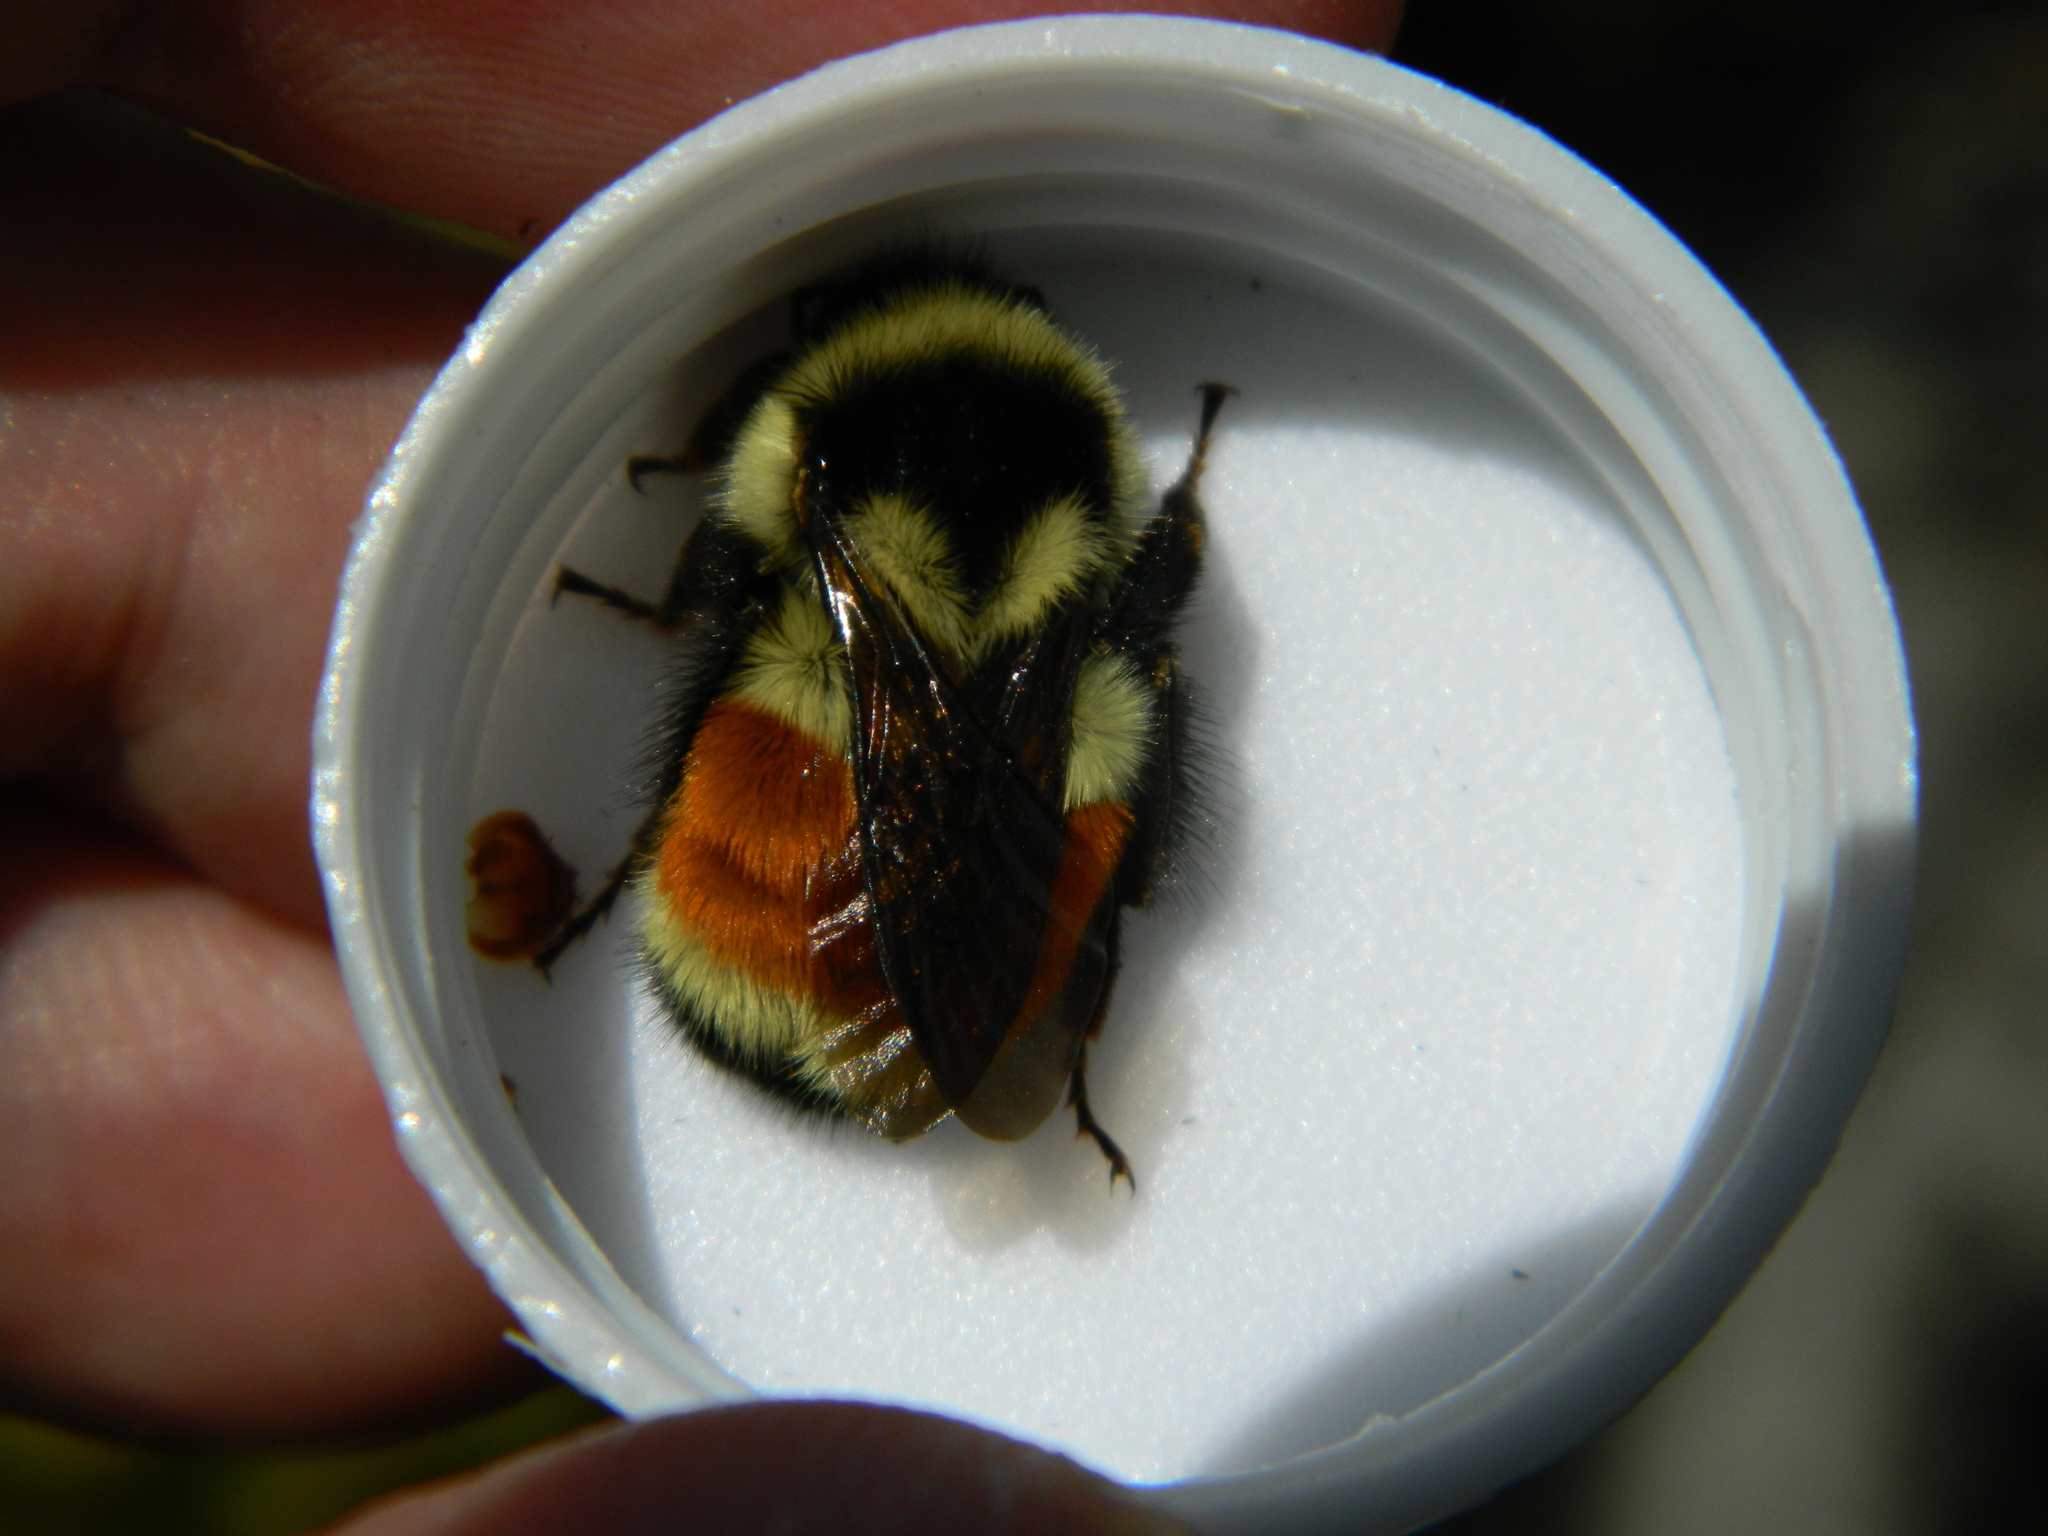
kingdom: Animalia
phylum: Arthropoda
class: Insecta
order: Hymenoptera
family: Apidae
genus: Bombus
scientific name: Bombus ternarius
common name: Tri-colored bumble bee
